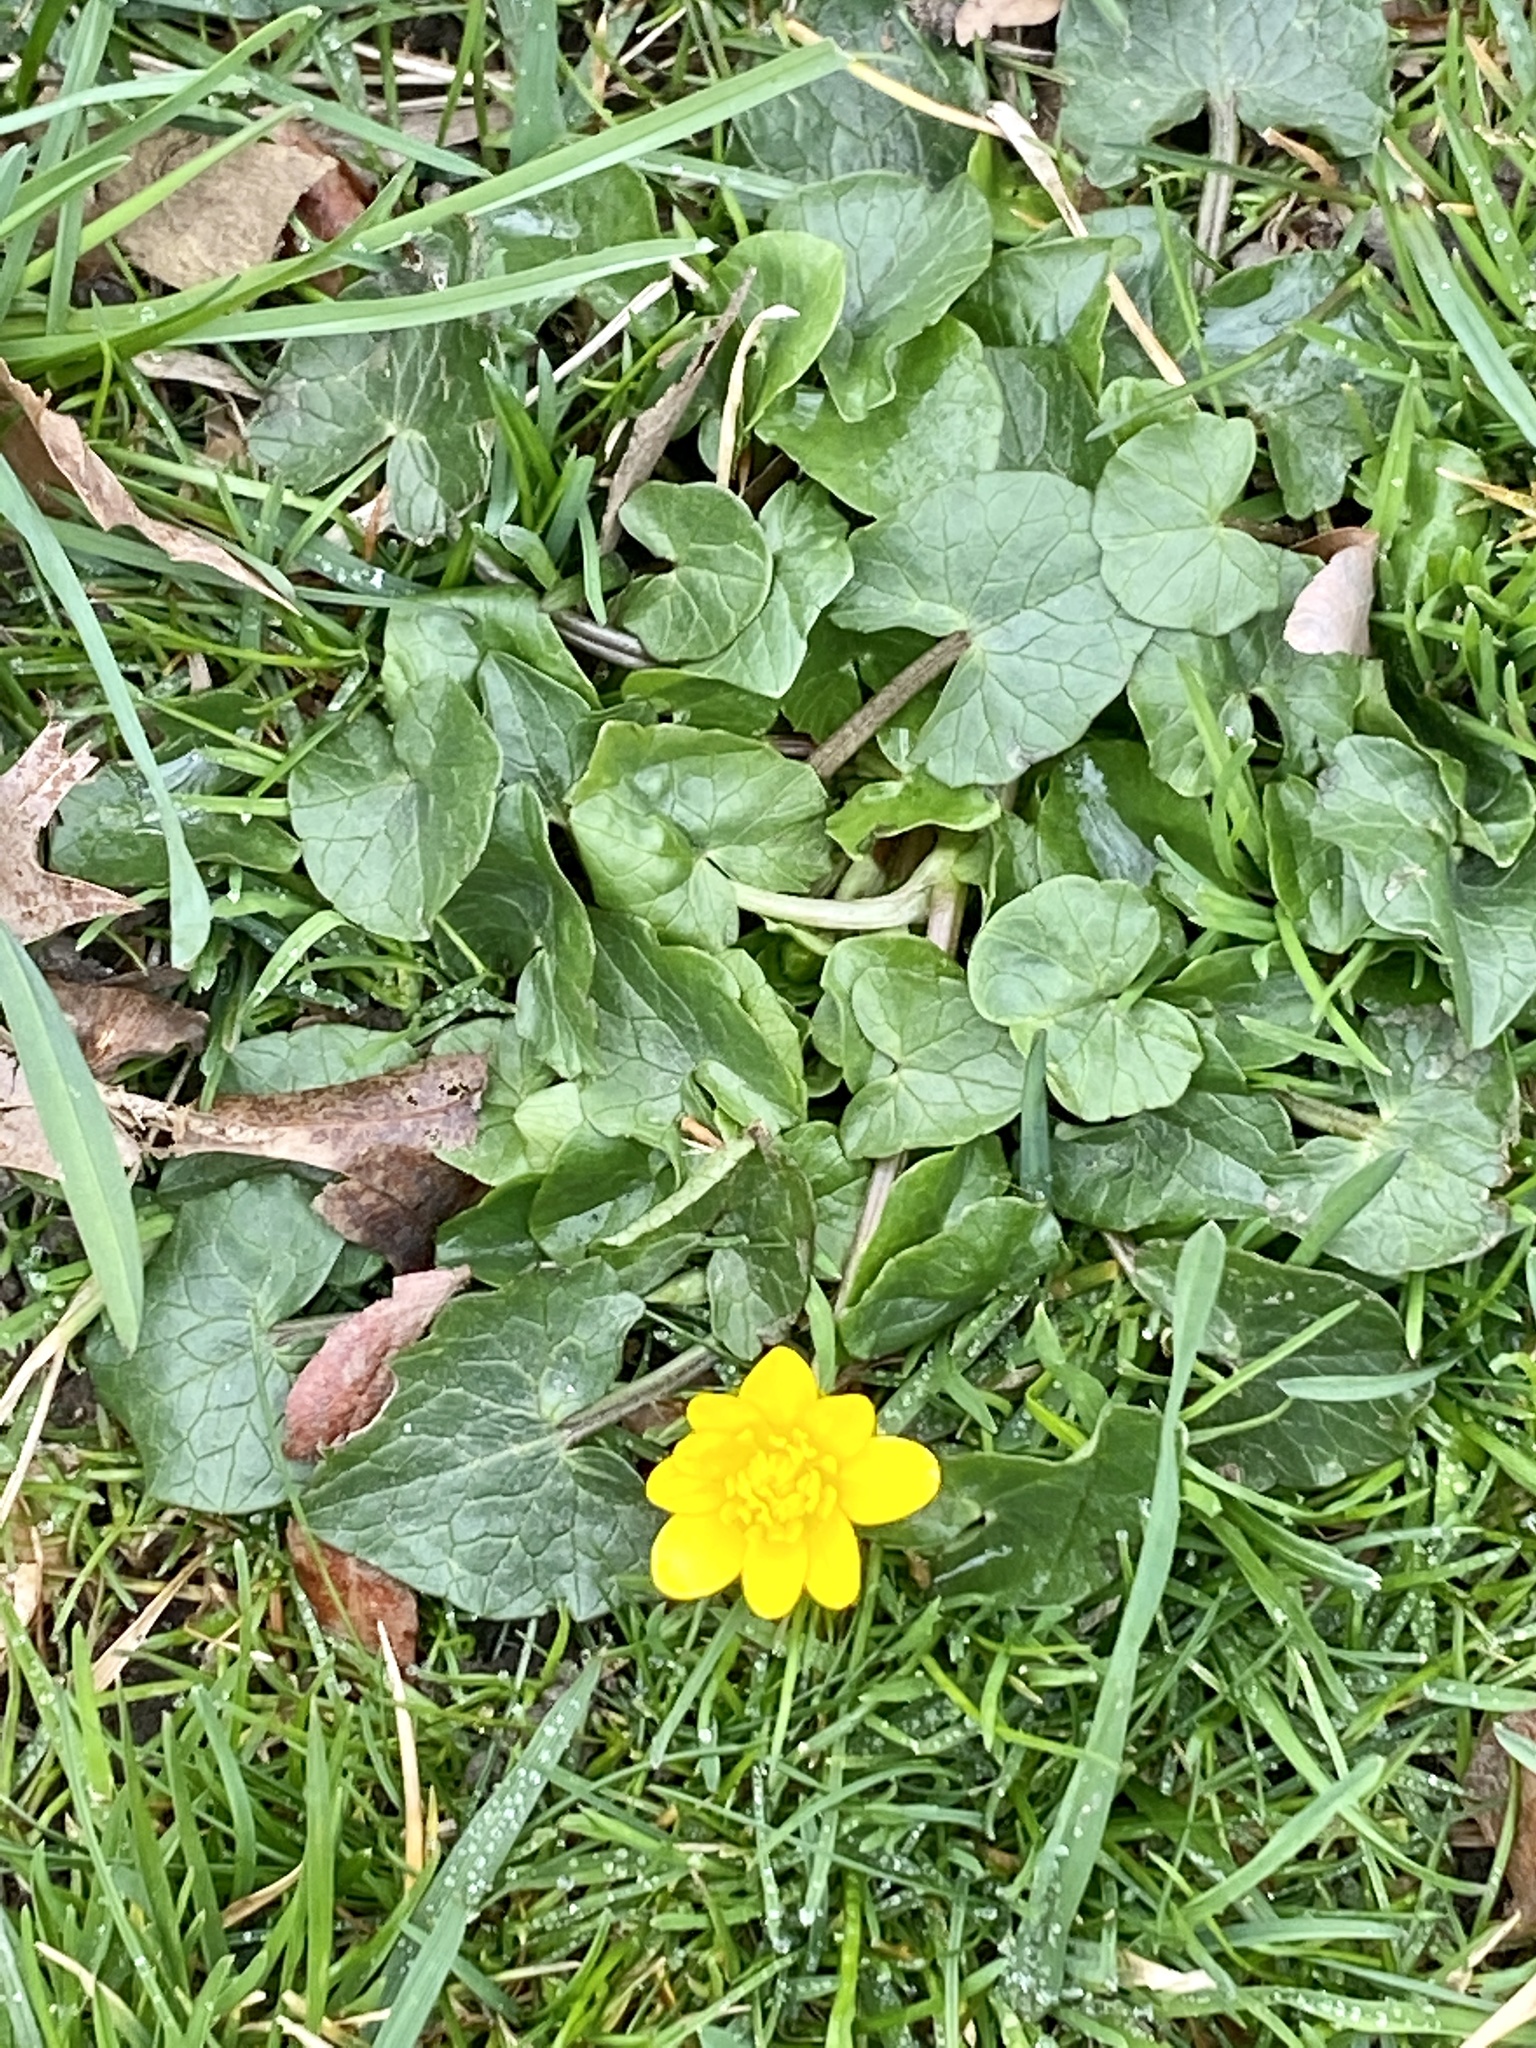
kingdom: Plantae
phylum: Tracheophyta
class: Magnoliopsida
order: Ranunculales
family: Ranunculaceae
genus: Ficaria
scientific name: Ficaria verna
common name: Lesser celandine
